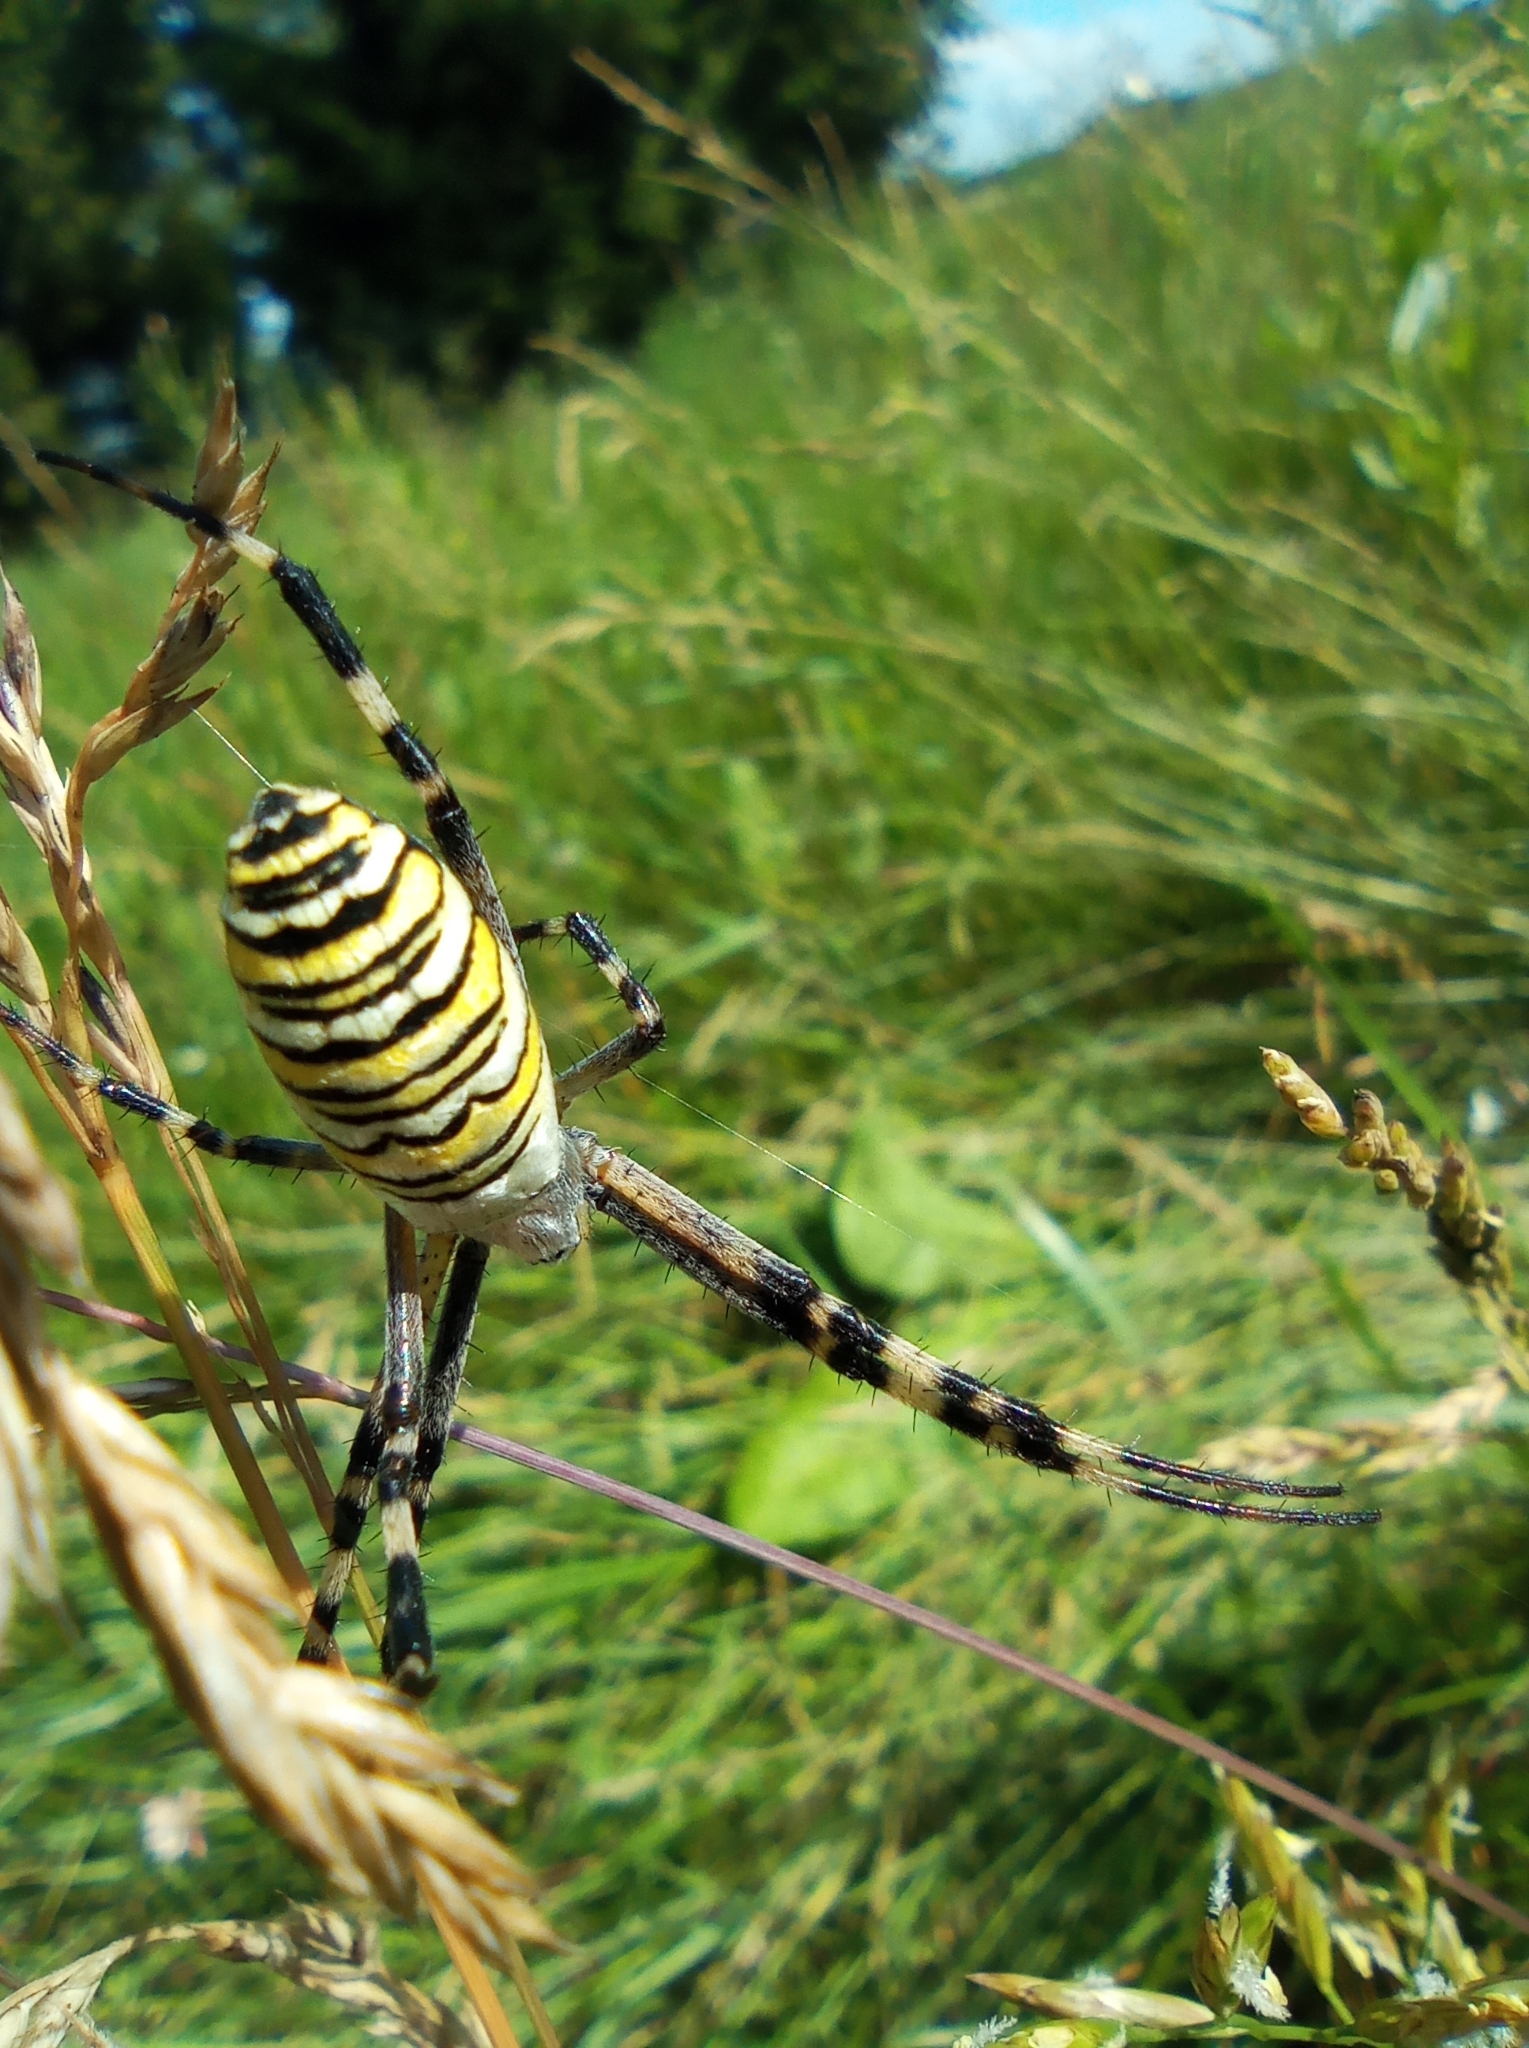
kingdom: Animalia
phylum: Arthropoda
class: Arachnida
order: Araneae
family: Araneidae
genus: Argiope
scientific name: Argiope bruennichi
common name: Wasp spider
